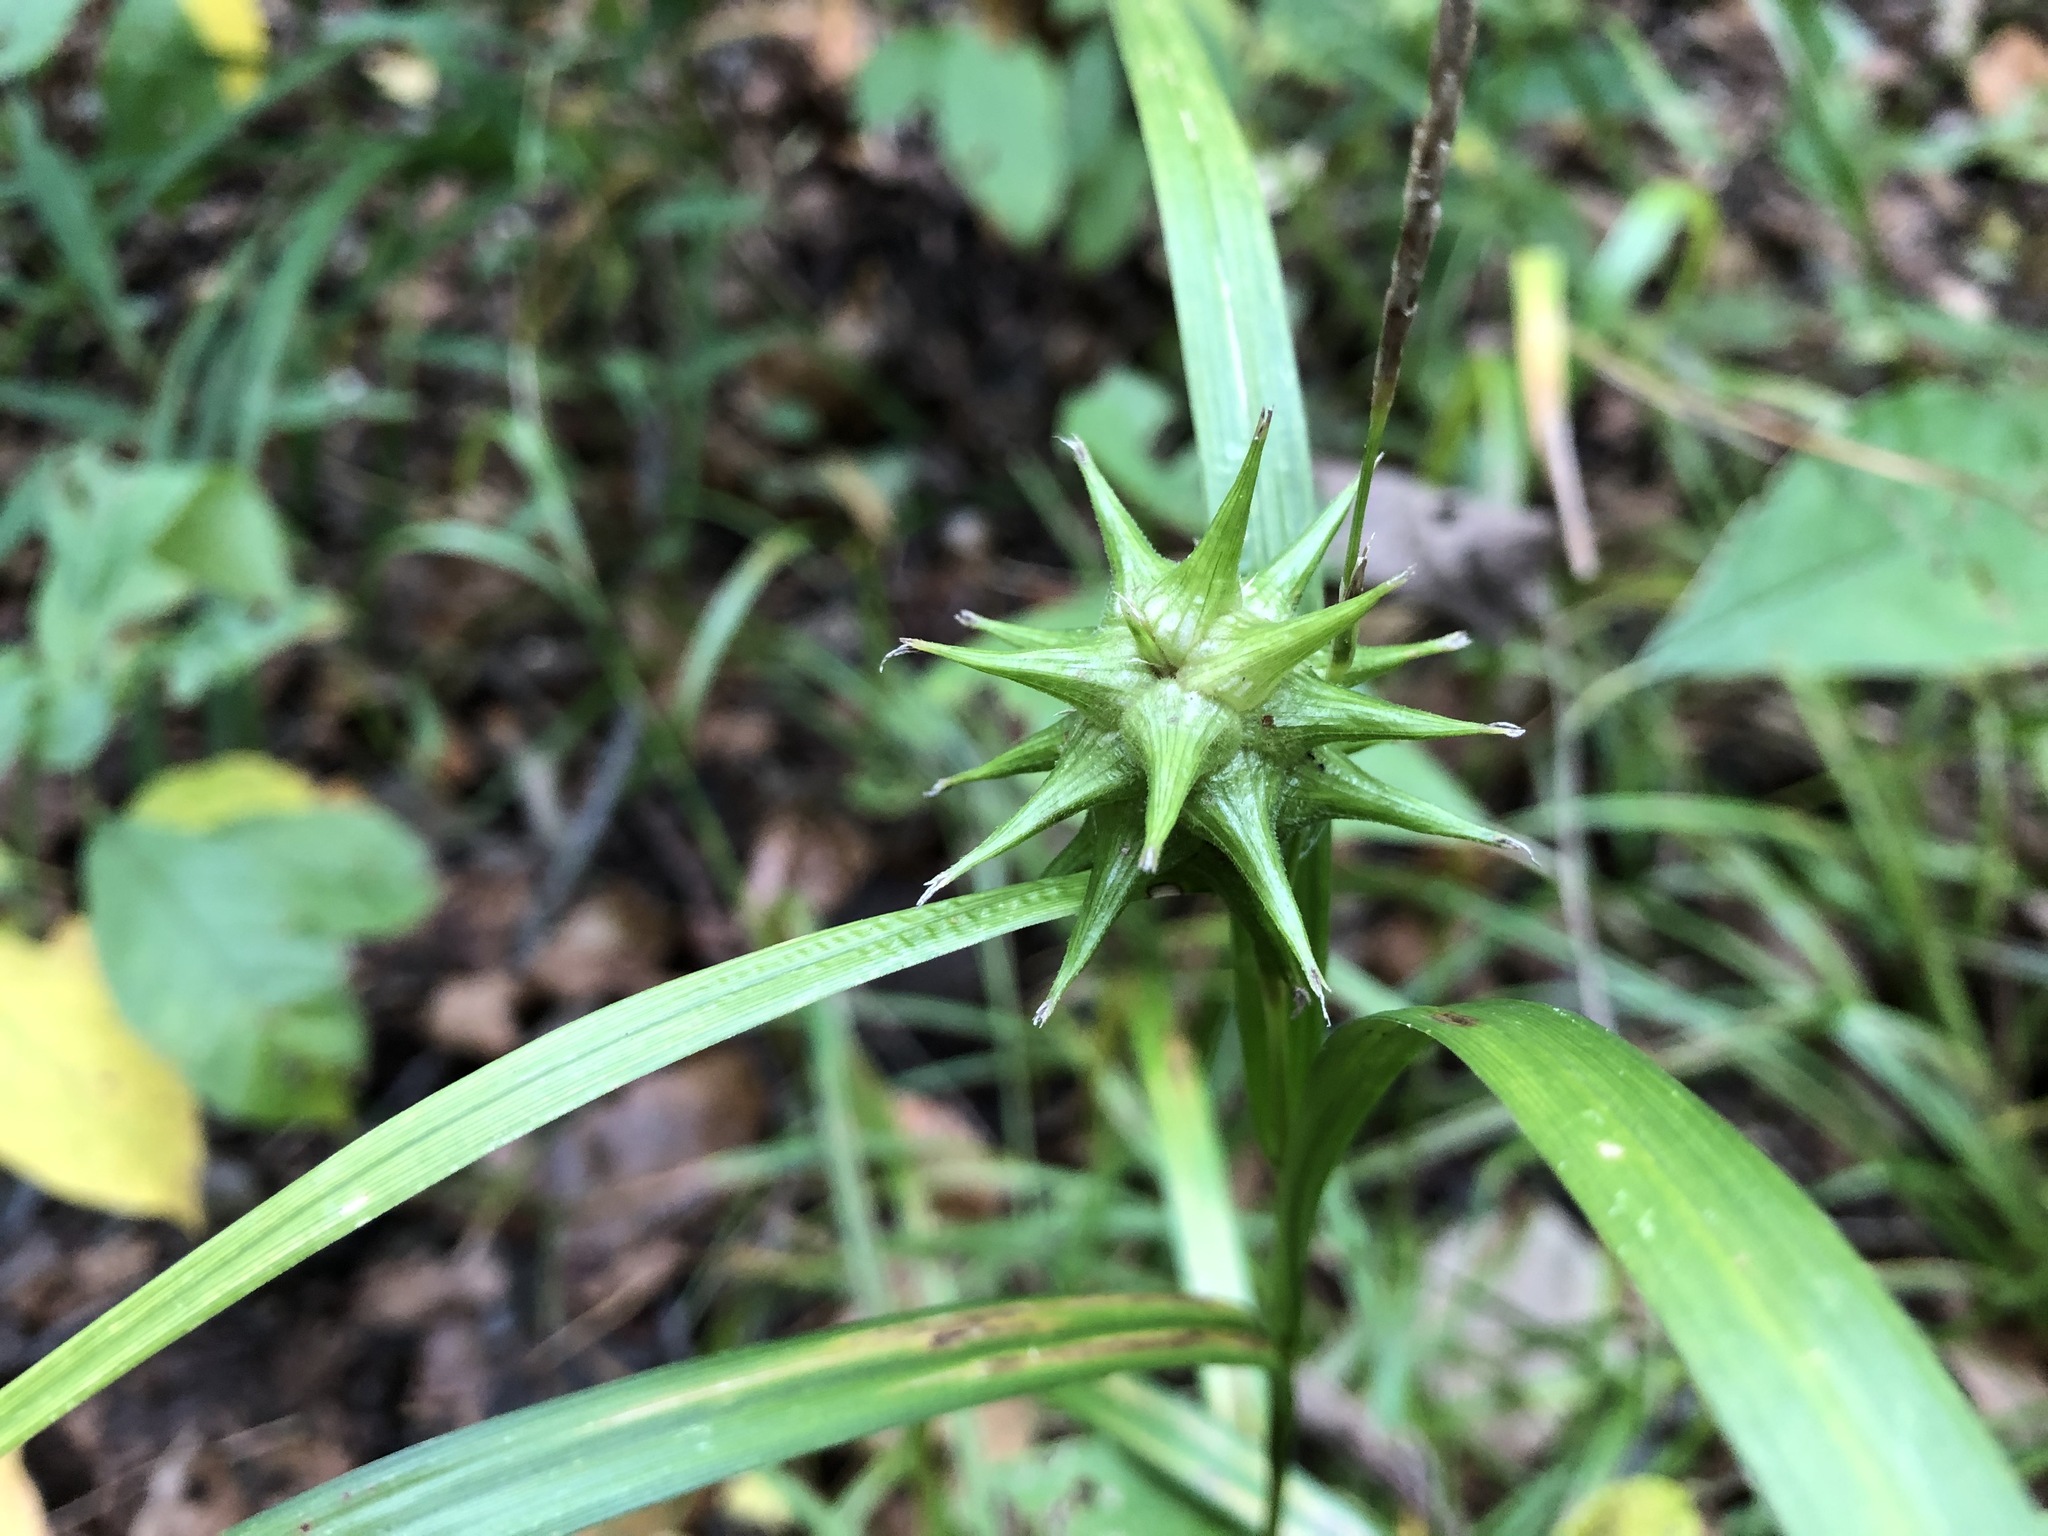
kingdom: Plantae
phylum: Tracheophyta
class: Liliopsida
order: Poales
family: Cyperaceae
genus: Carex
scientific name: Carex grayi
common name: Asa gray's sedge
